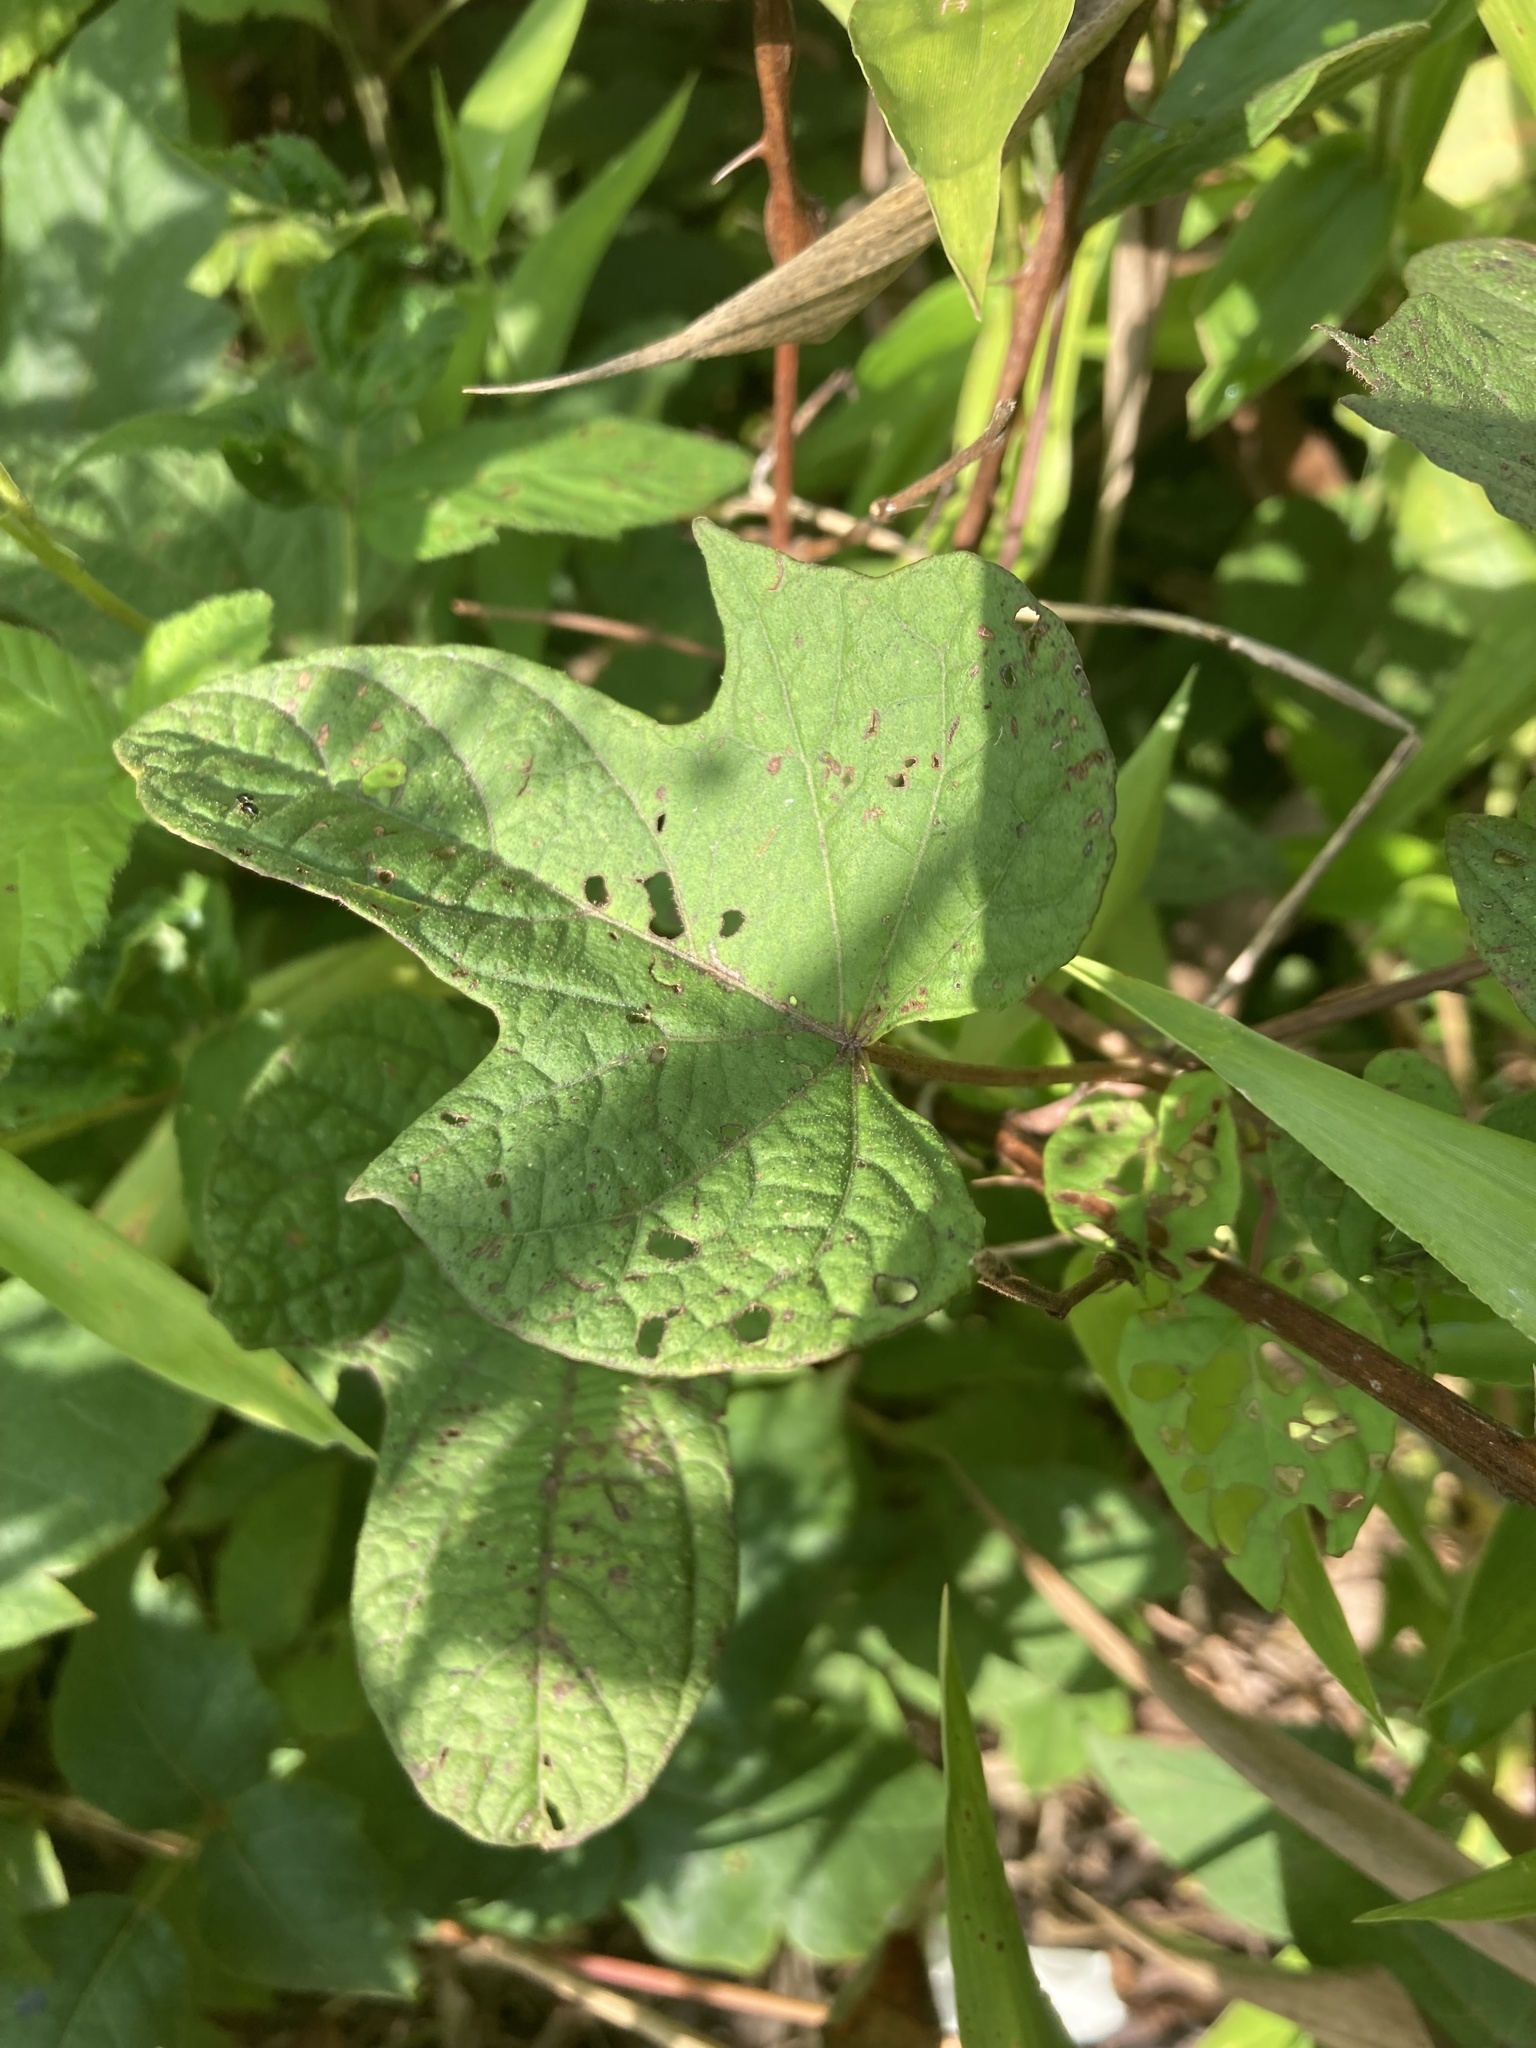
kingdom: Plantae
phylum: Tracheophyta
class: Magnoliopsida
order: Solanales
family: Convolvulaceae
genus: Ipomoea
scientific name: Ipomoea pandurata
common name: Man-of-the-earth
